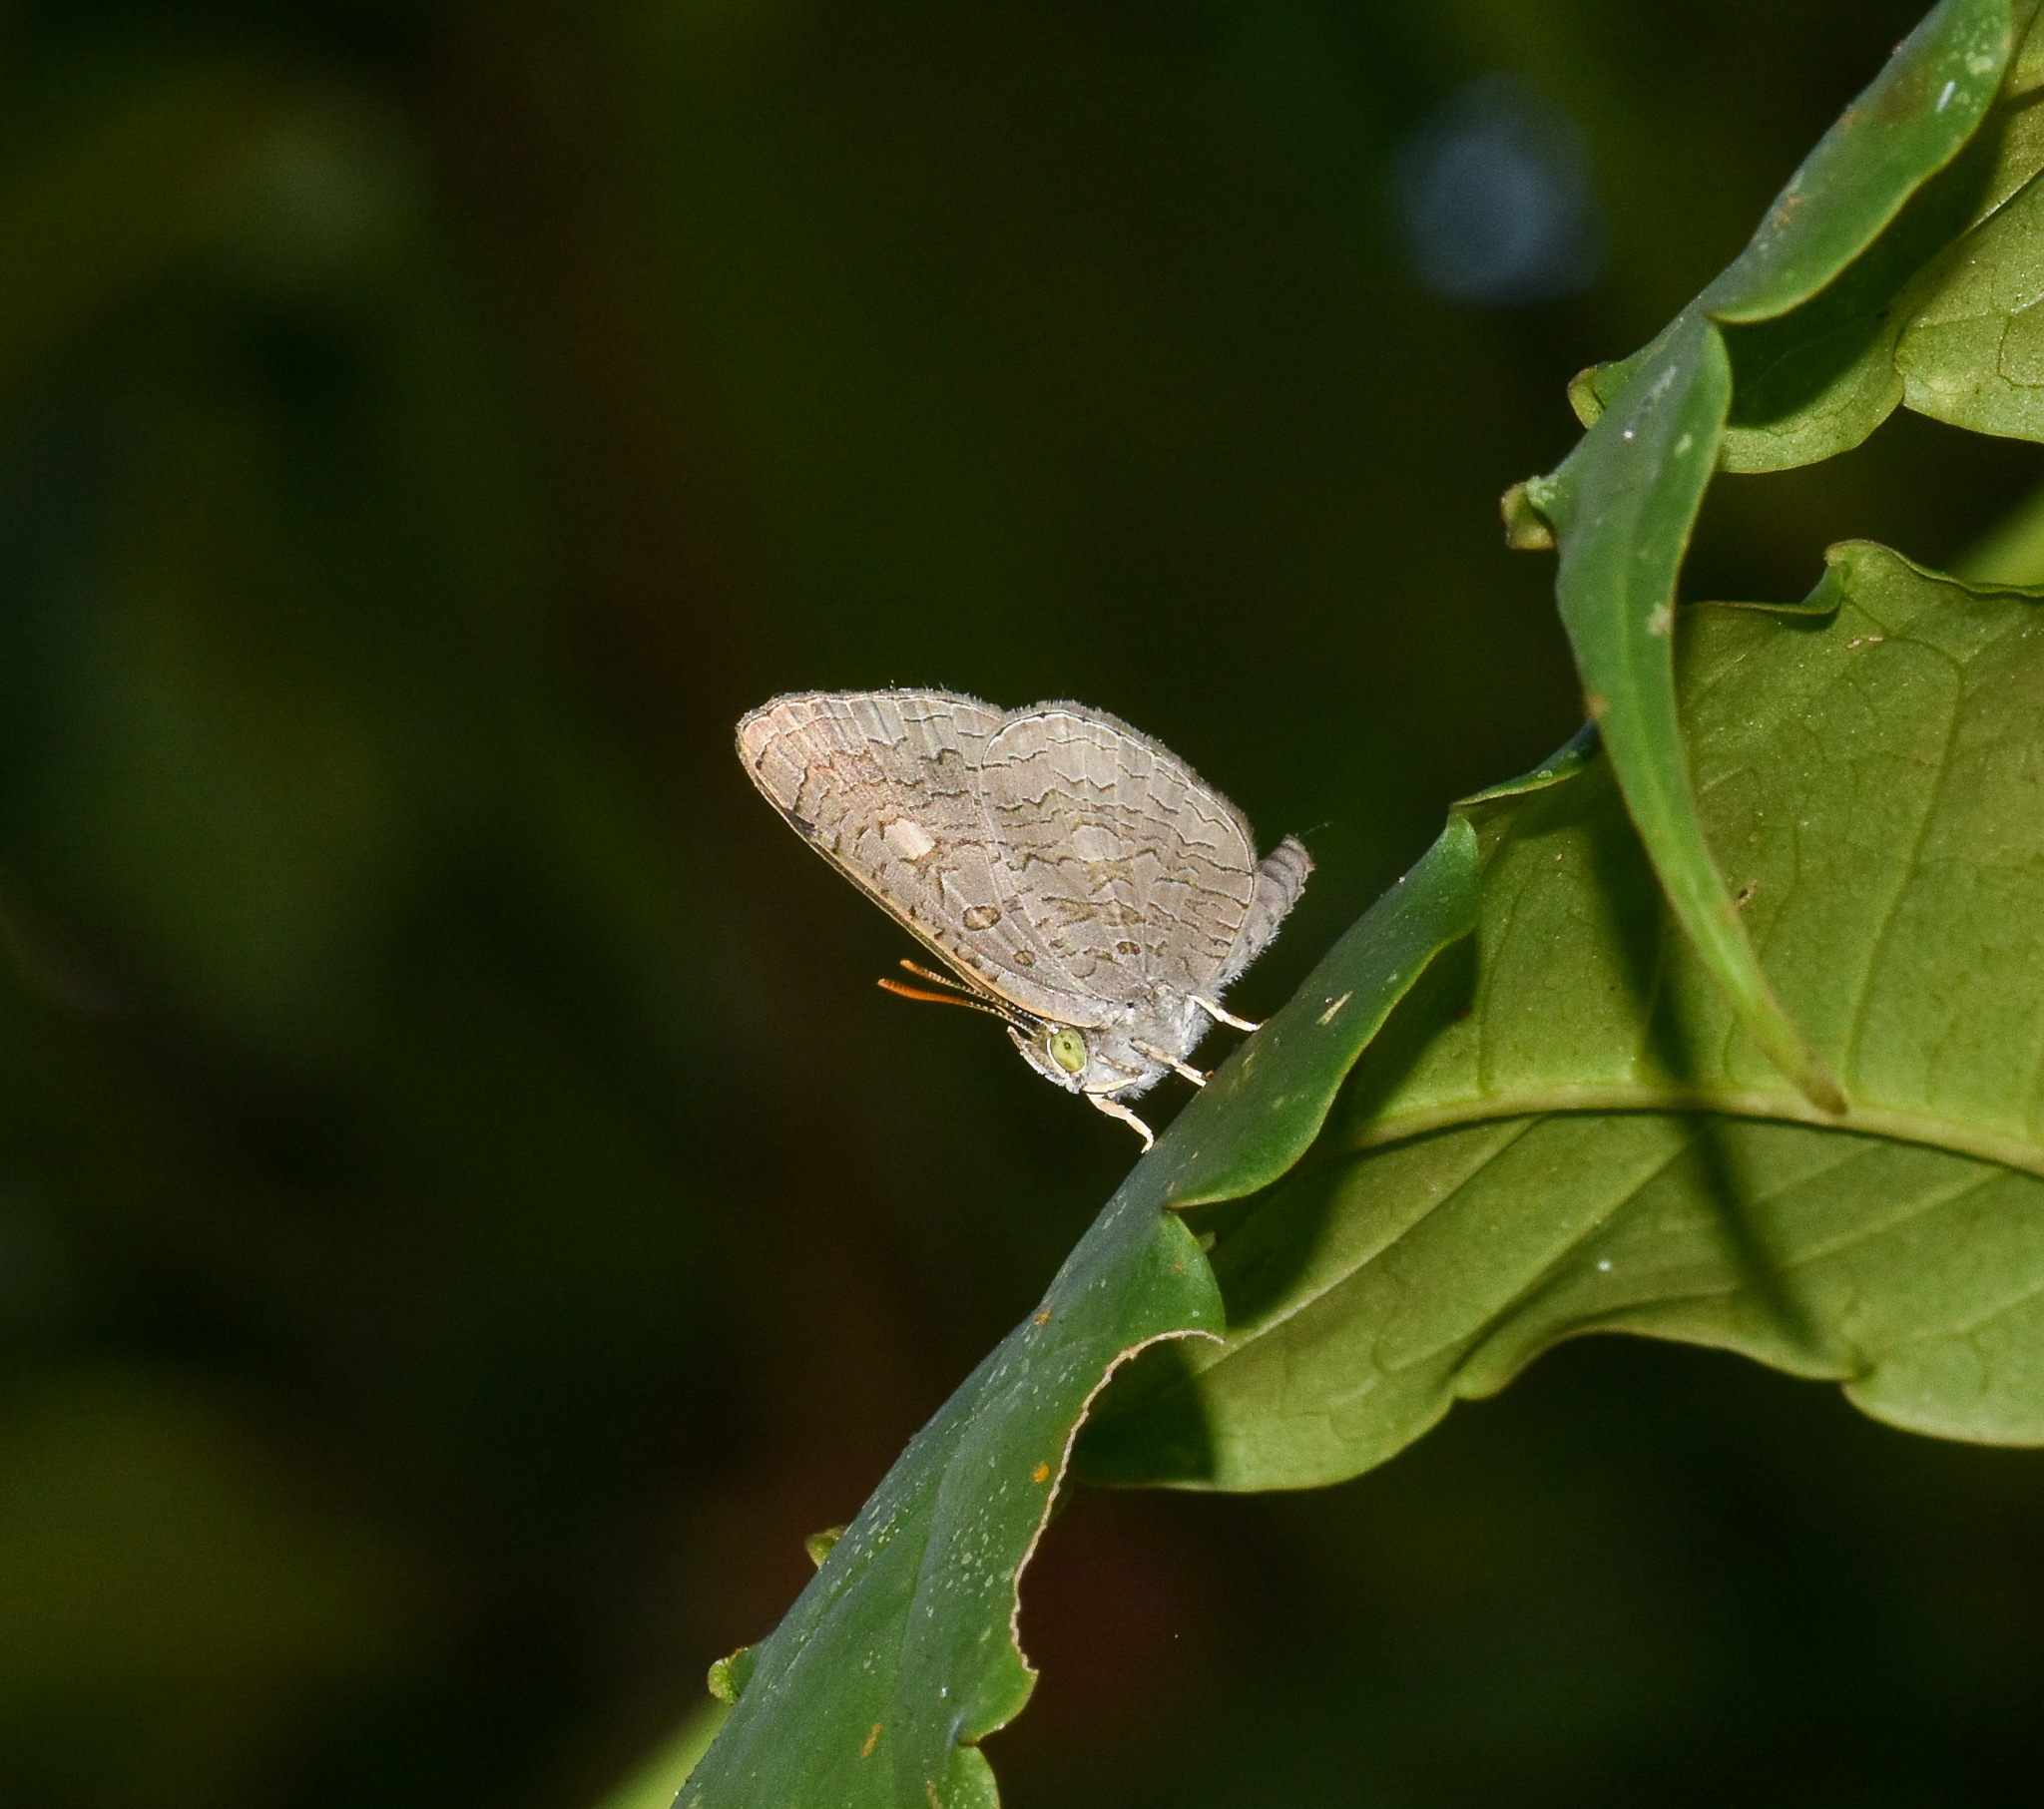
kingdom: Animalia
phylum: Arthropoda
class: Insecta
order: Lepidoptera
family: Lycaenidae
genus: Spalgis
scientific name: Spalgis epius
